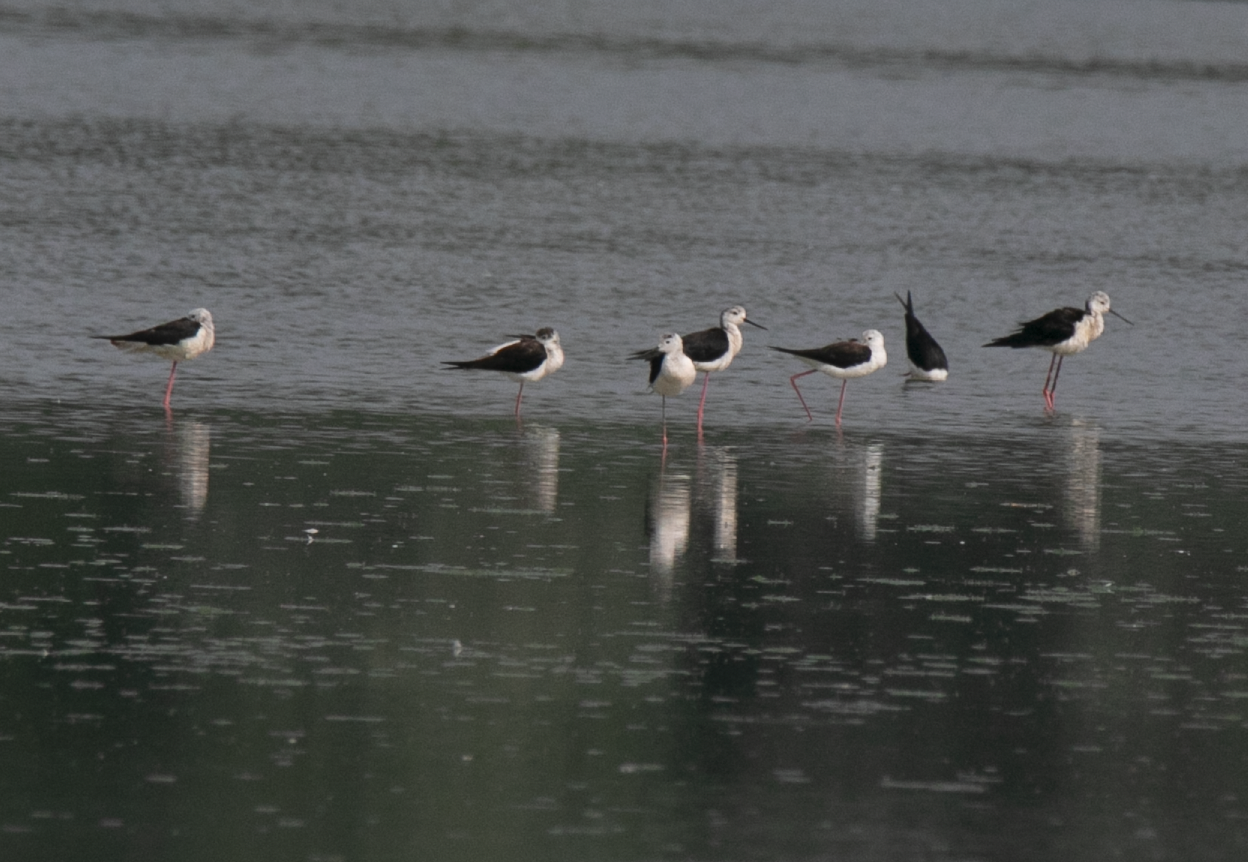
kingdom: Animalia
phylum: Chordata
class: Aves
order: Charadriiformes
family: Recurvirostridae
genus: Himantopus
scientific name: Himantopus himantopus
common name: Black-winged stilt
